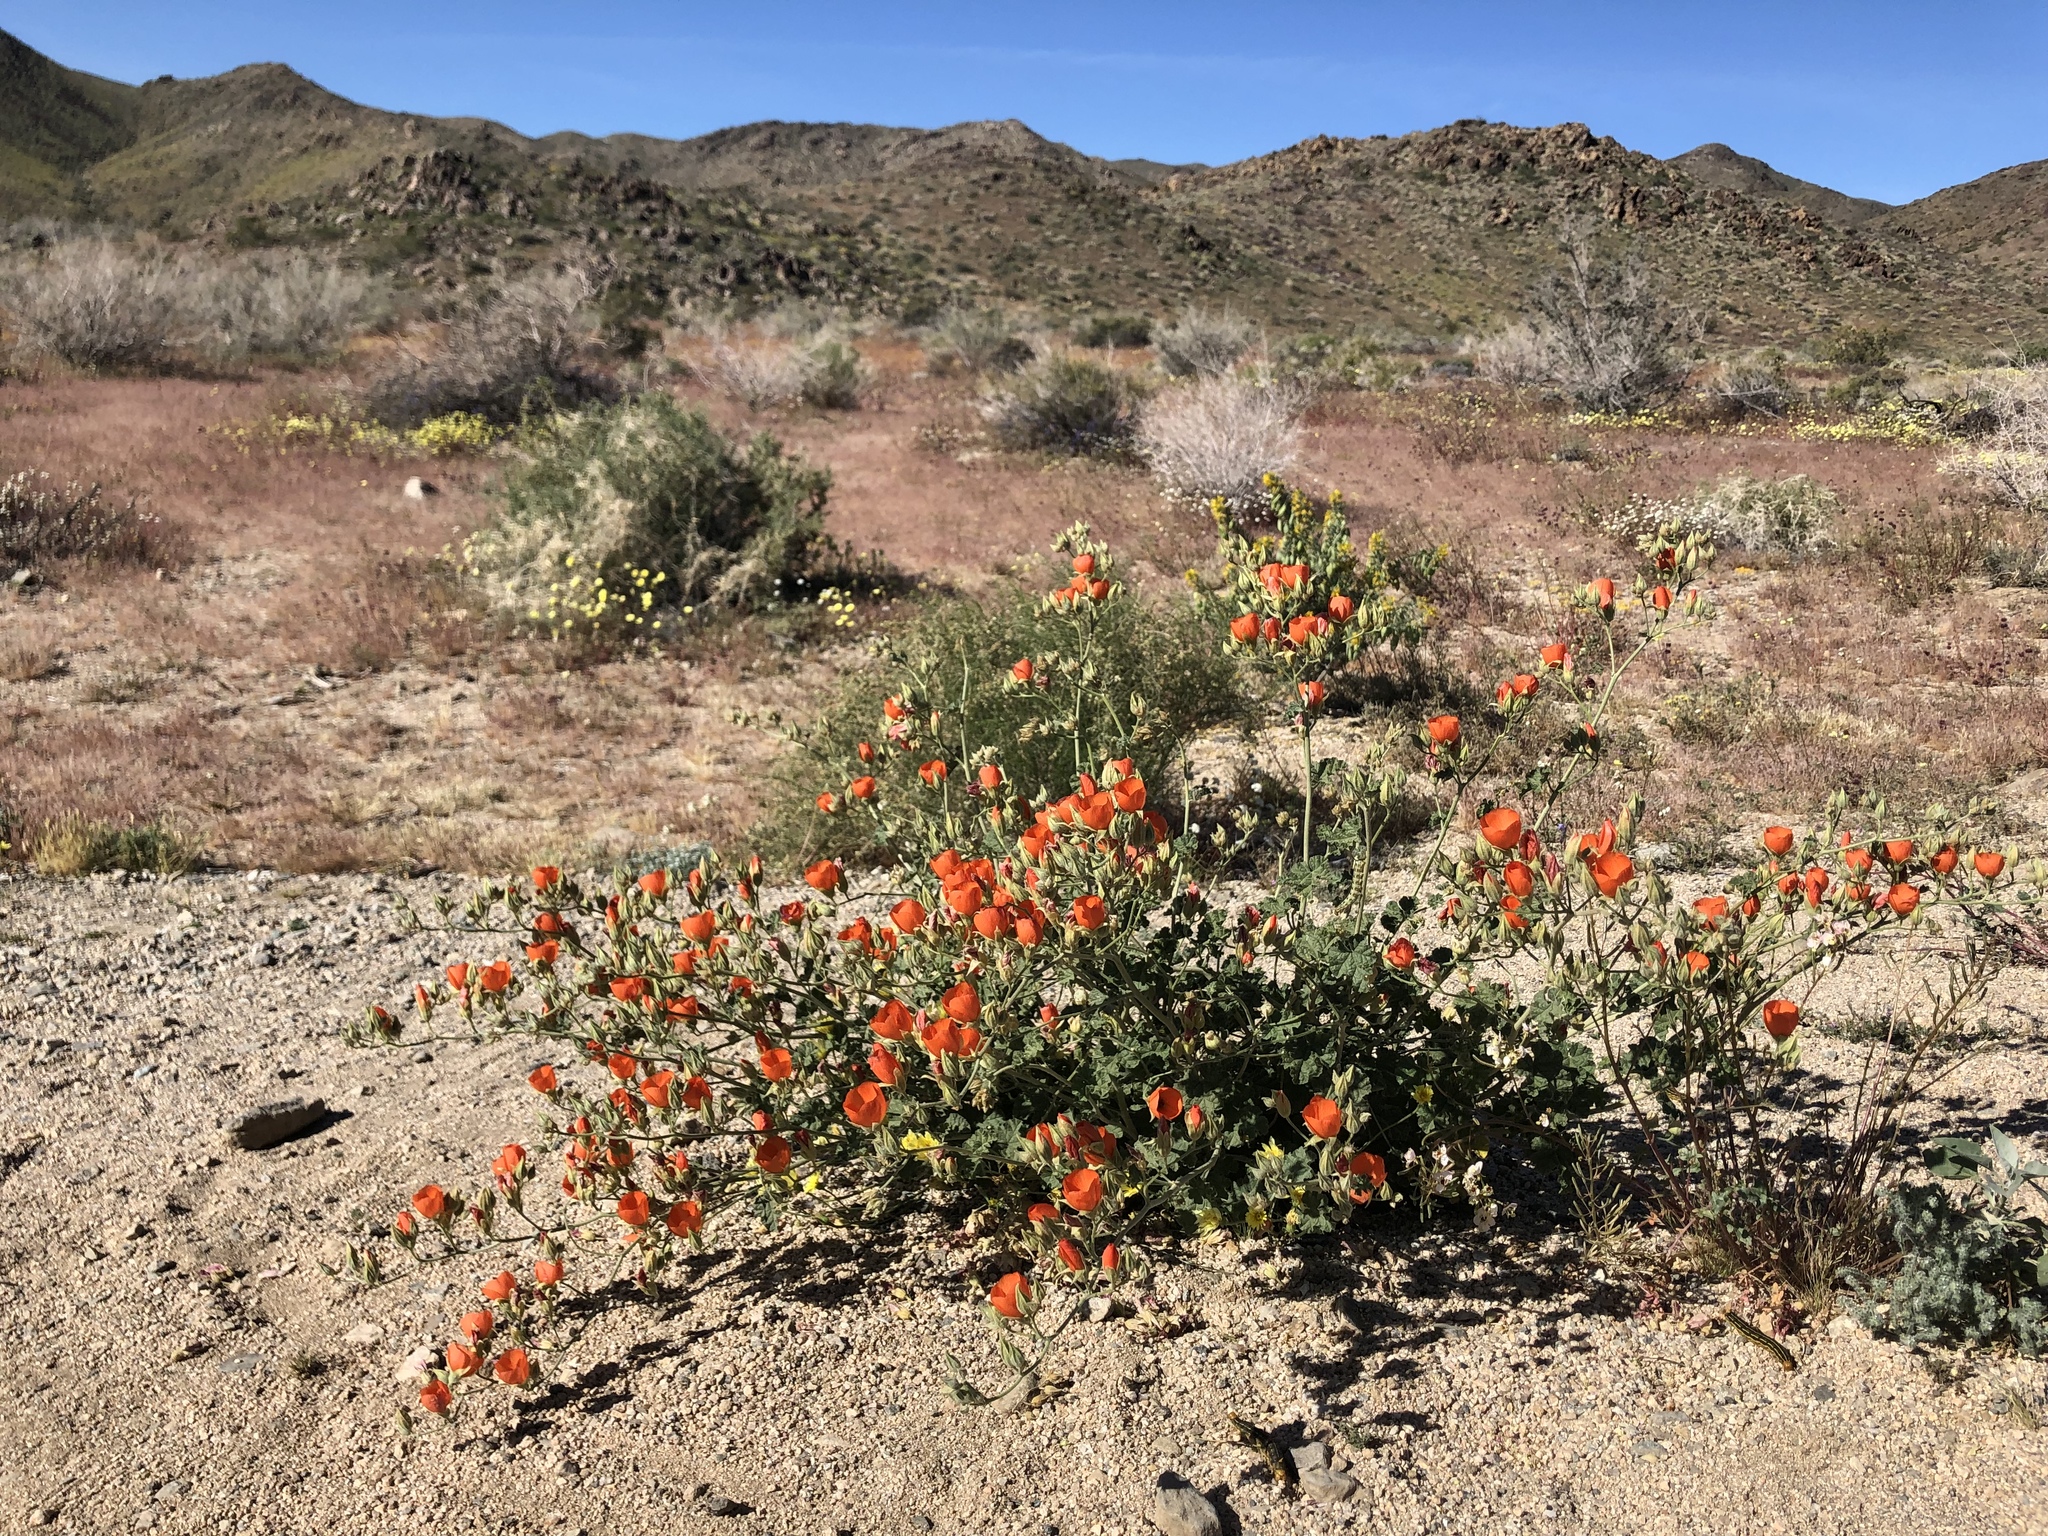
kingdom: Plantae
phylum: Tracheophyta
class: Magnoliopsida
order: Malvales
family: Malvaceae
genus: Sphaeralcea
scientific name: Sphaeralcea ambigua
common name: Apricot globe-mallow
